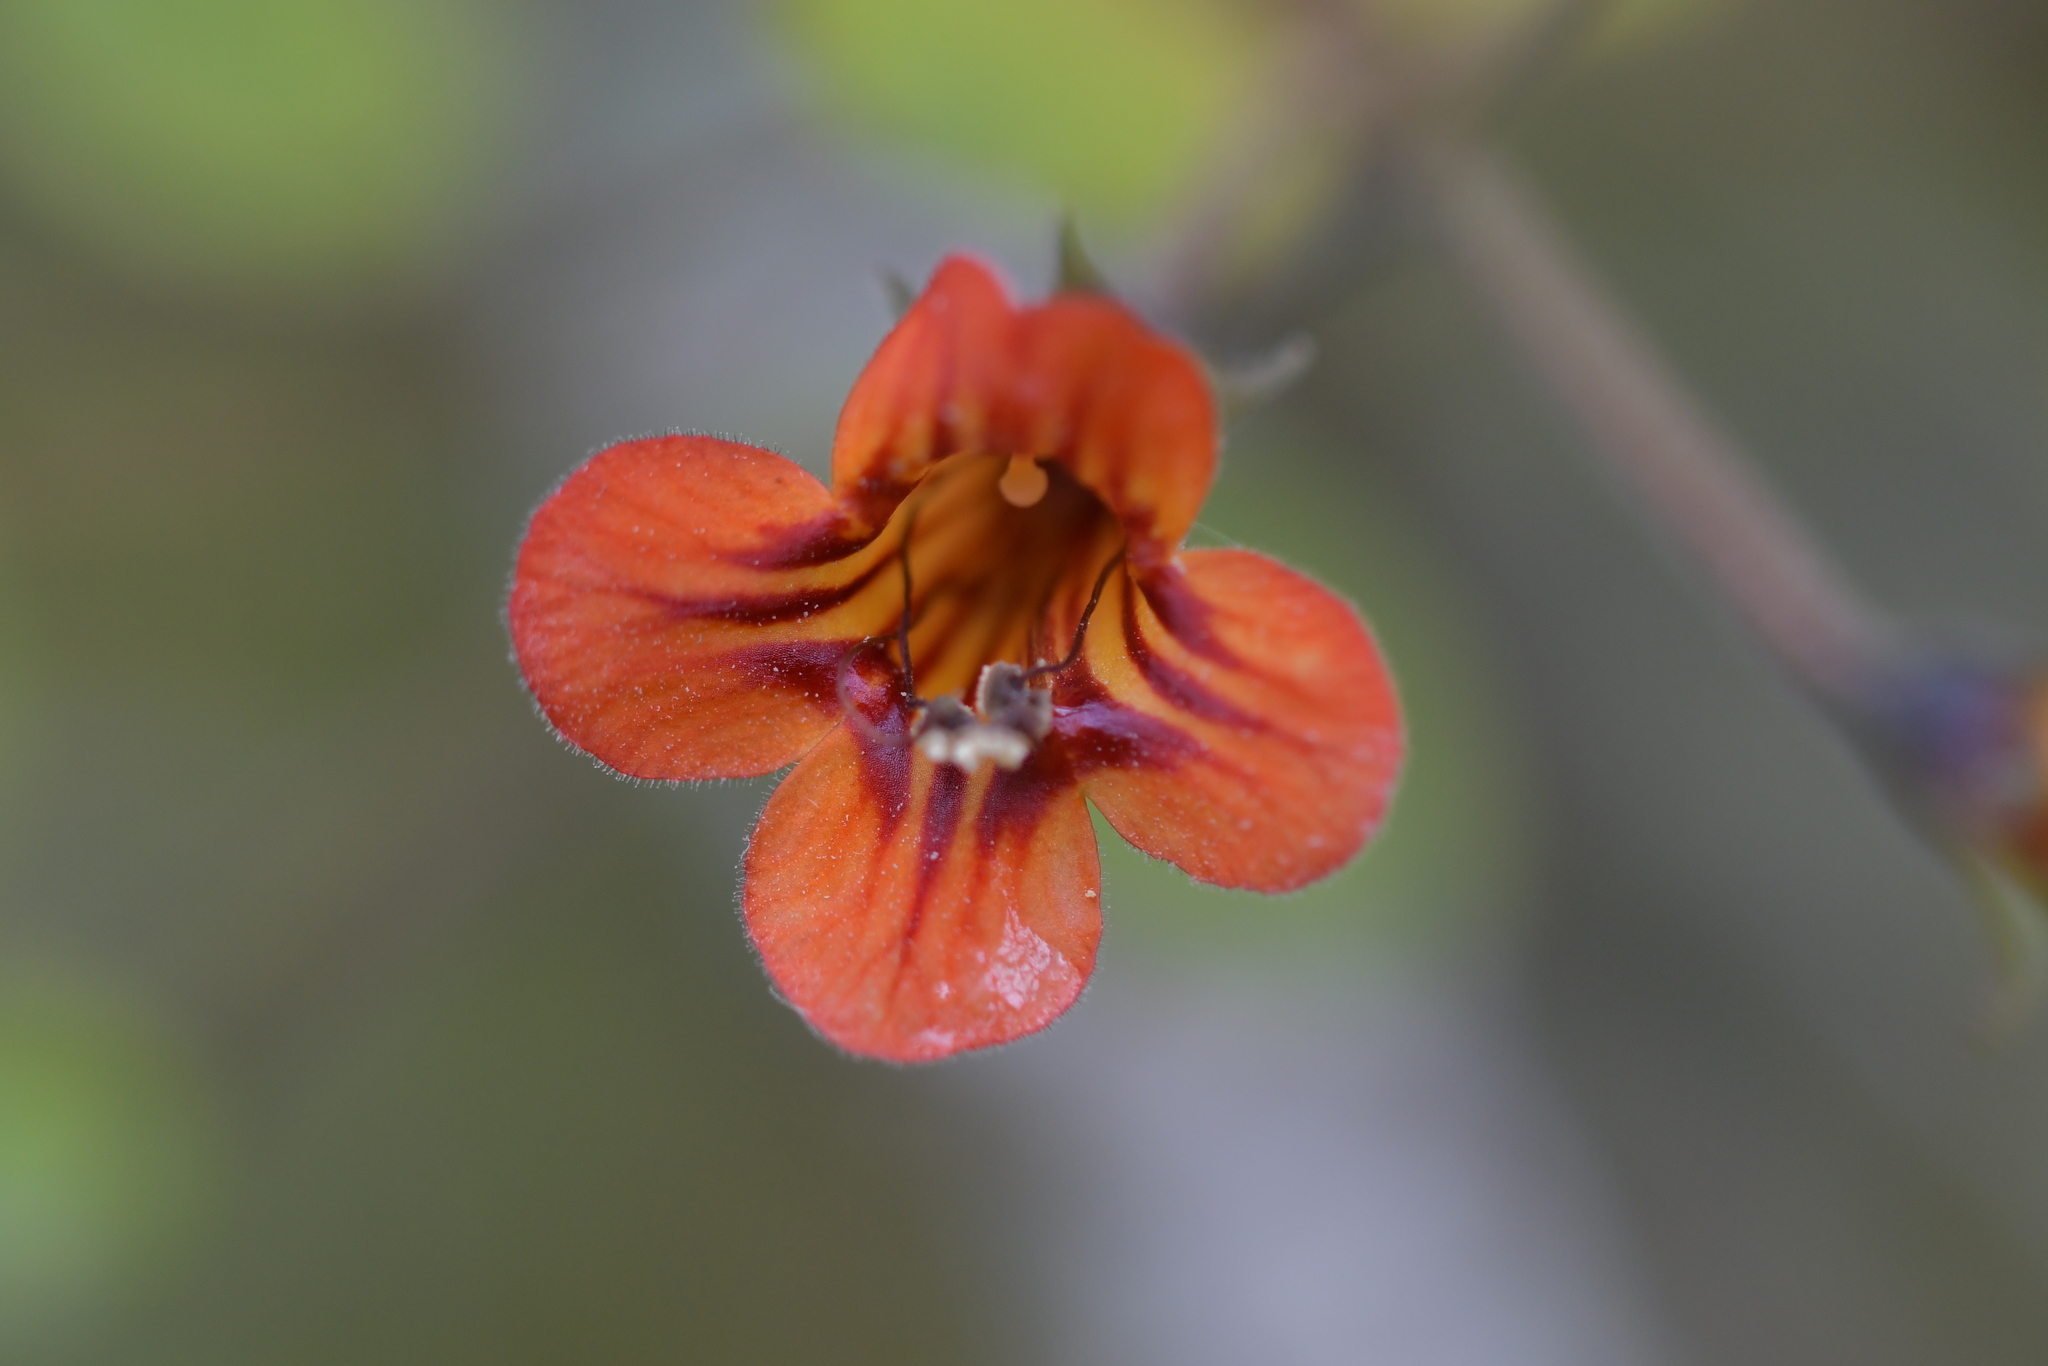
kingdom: Plantae
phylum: Tracheophyta
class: Magnoliopsida
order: Lamiales
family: Gesneriaceae
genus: Rhabdothamnus
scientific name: Rhabdothamnus solandri
